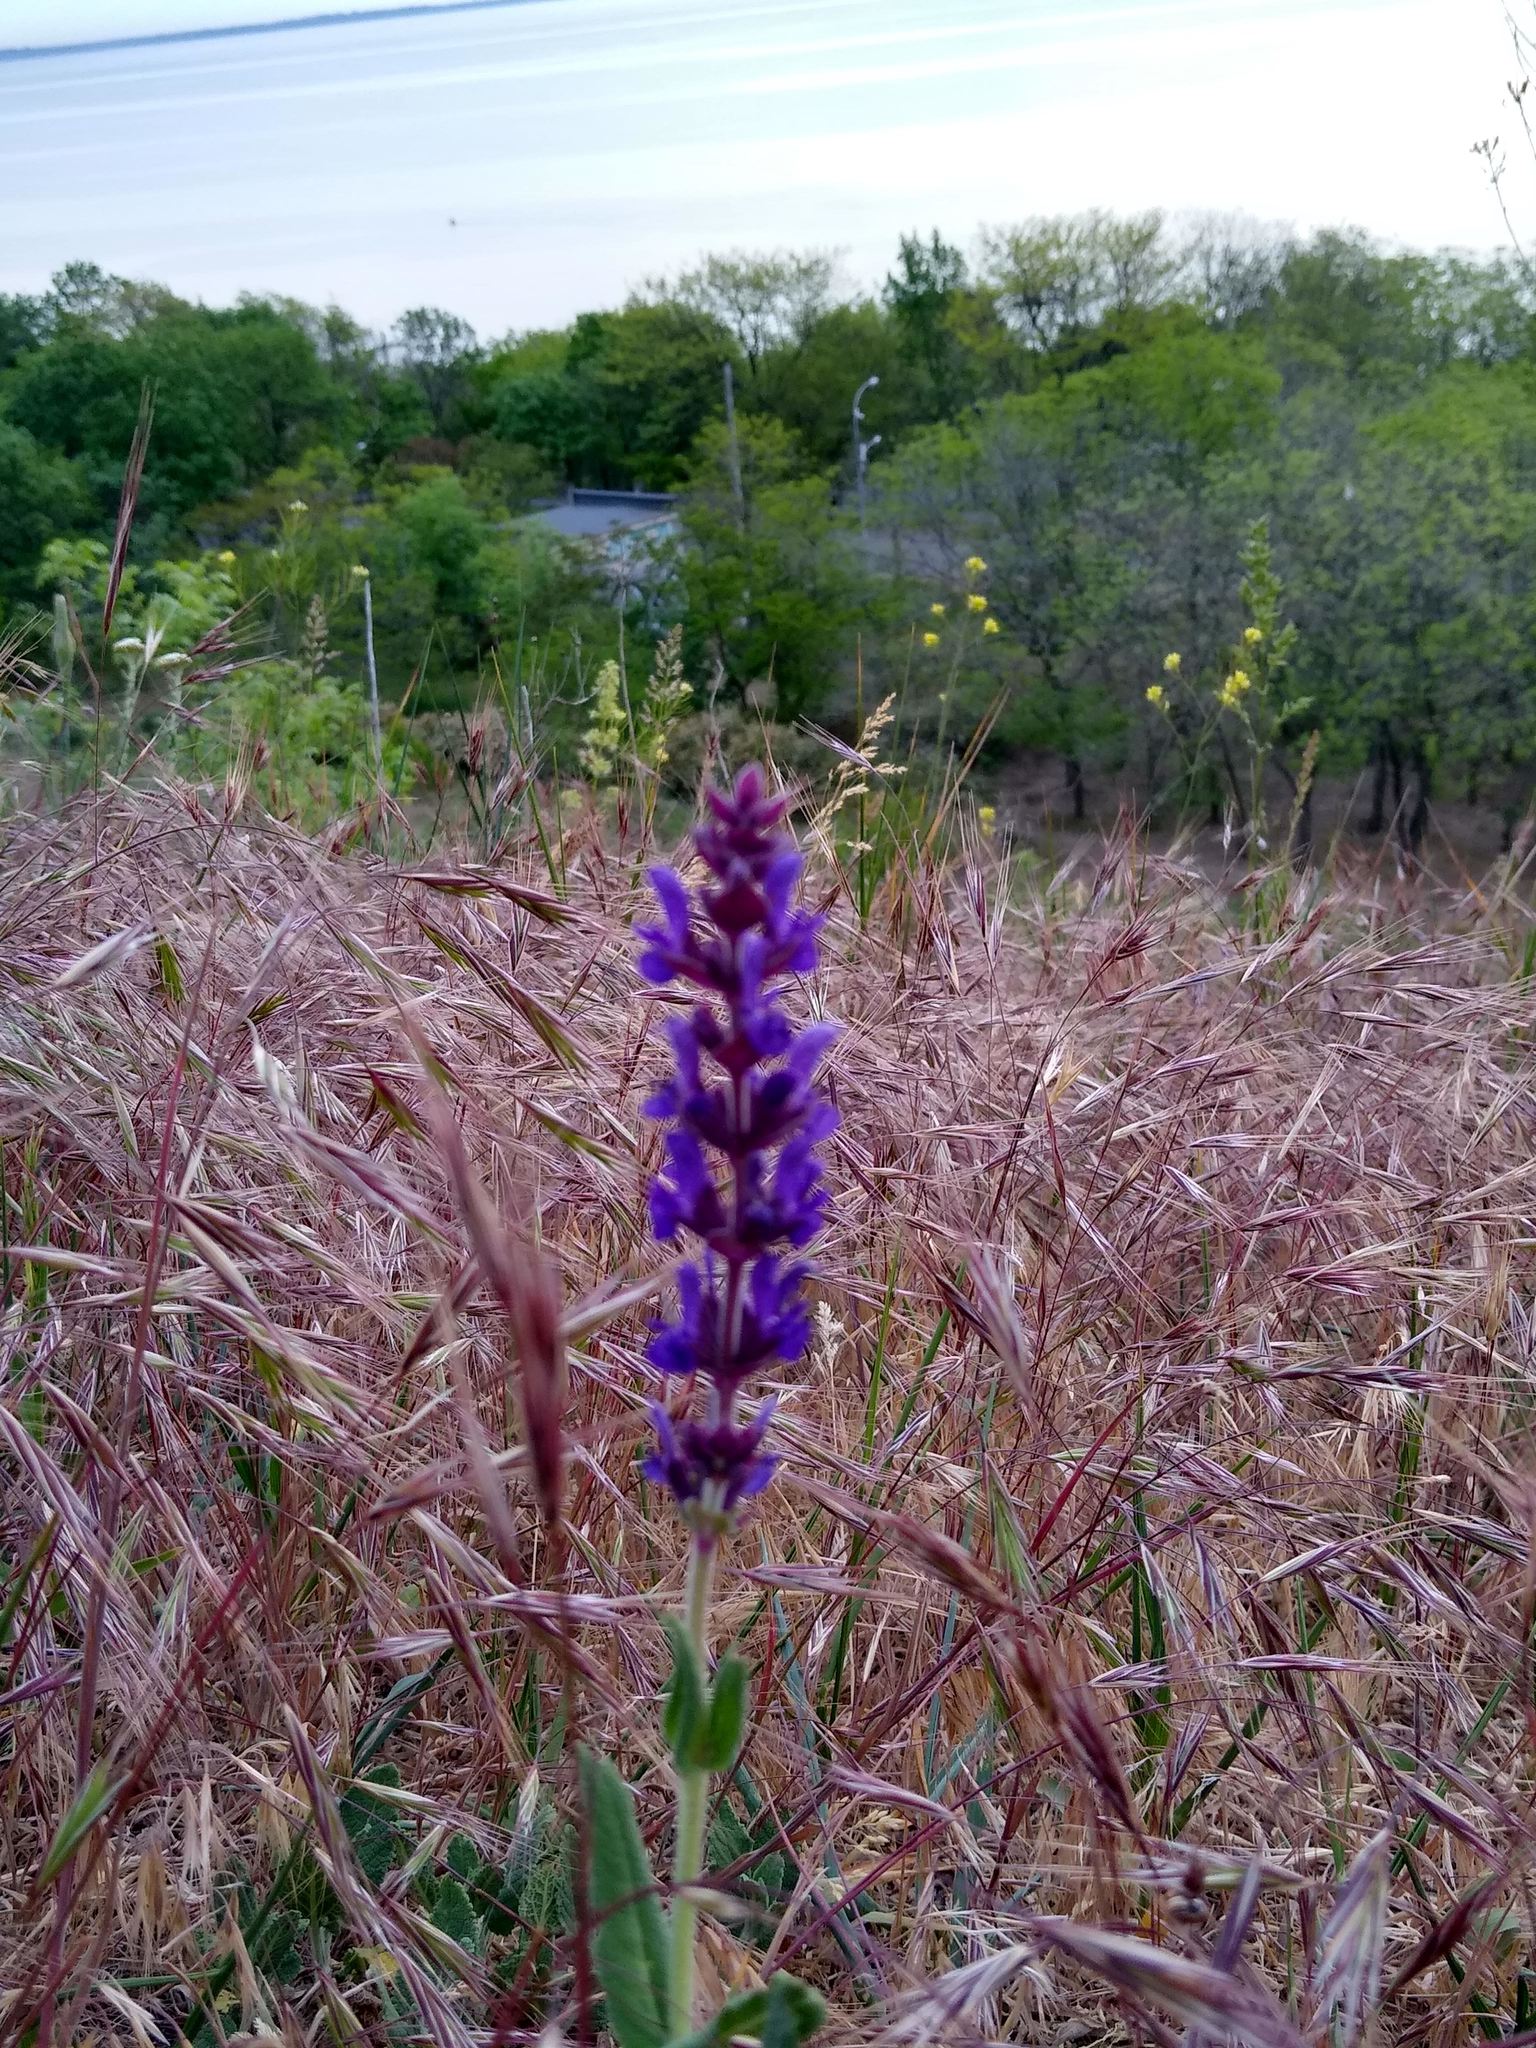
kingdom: Plantae
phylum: Tracheophyta
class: Magnoliopsida
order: Lamiales
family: Lamiaceae
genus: Salvia
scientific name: Salvia nemorosa
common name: Balkan clary
